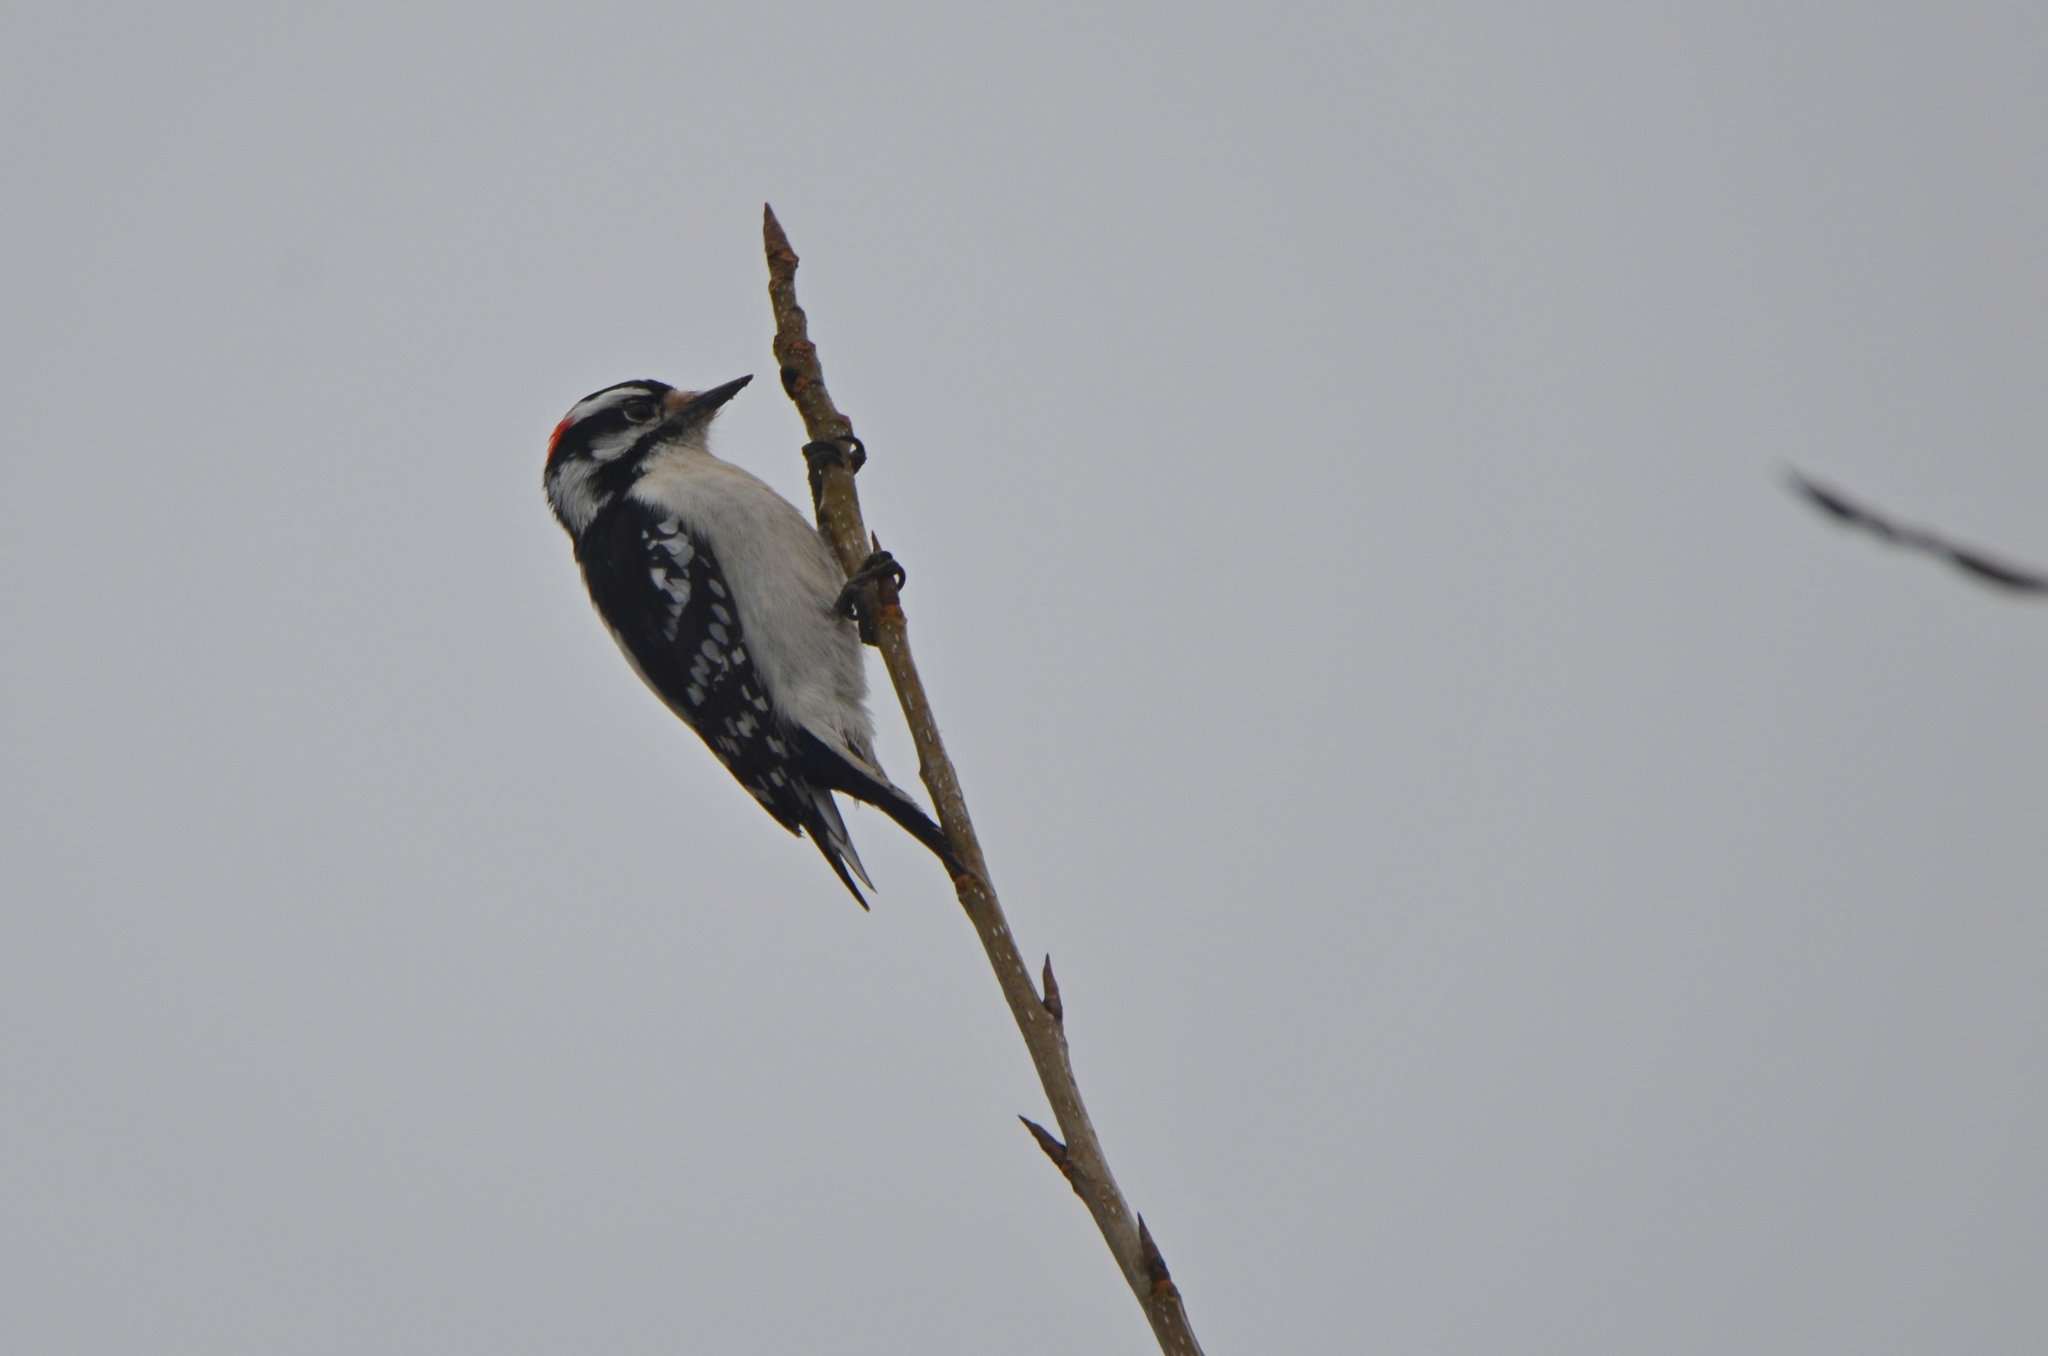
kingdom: Animalia
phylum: Chordata
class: Aves
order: Piciformes
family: Picidae
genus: Dryobates
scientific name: Dryobates pubescens
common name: Downy woodpecker
